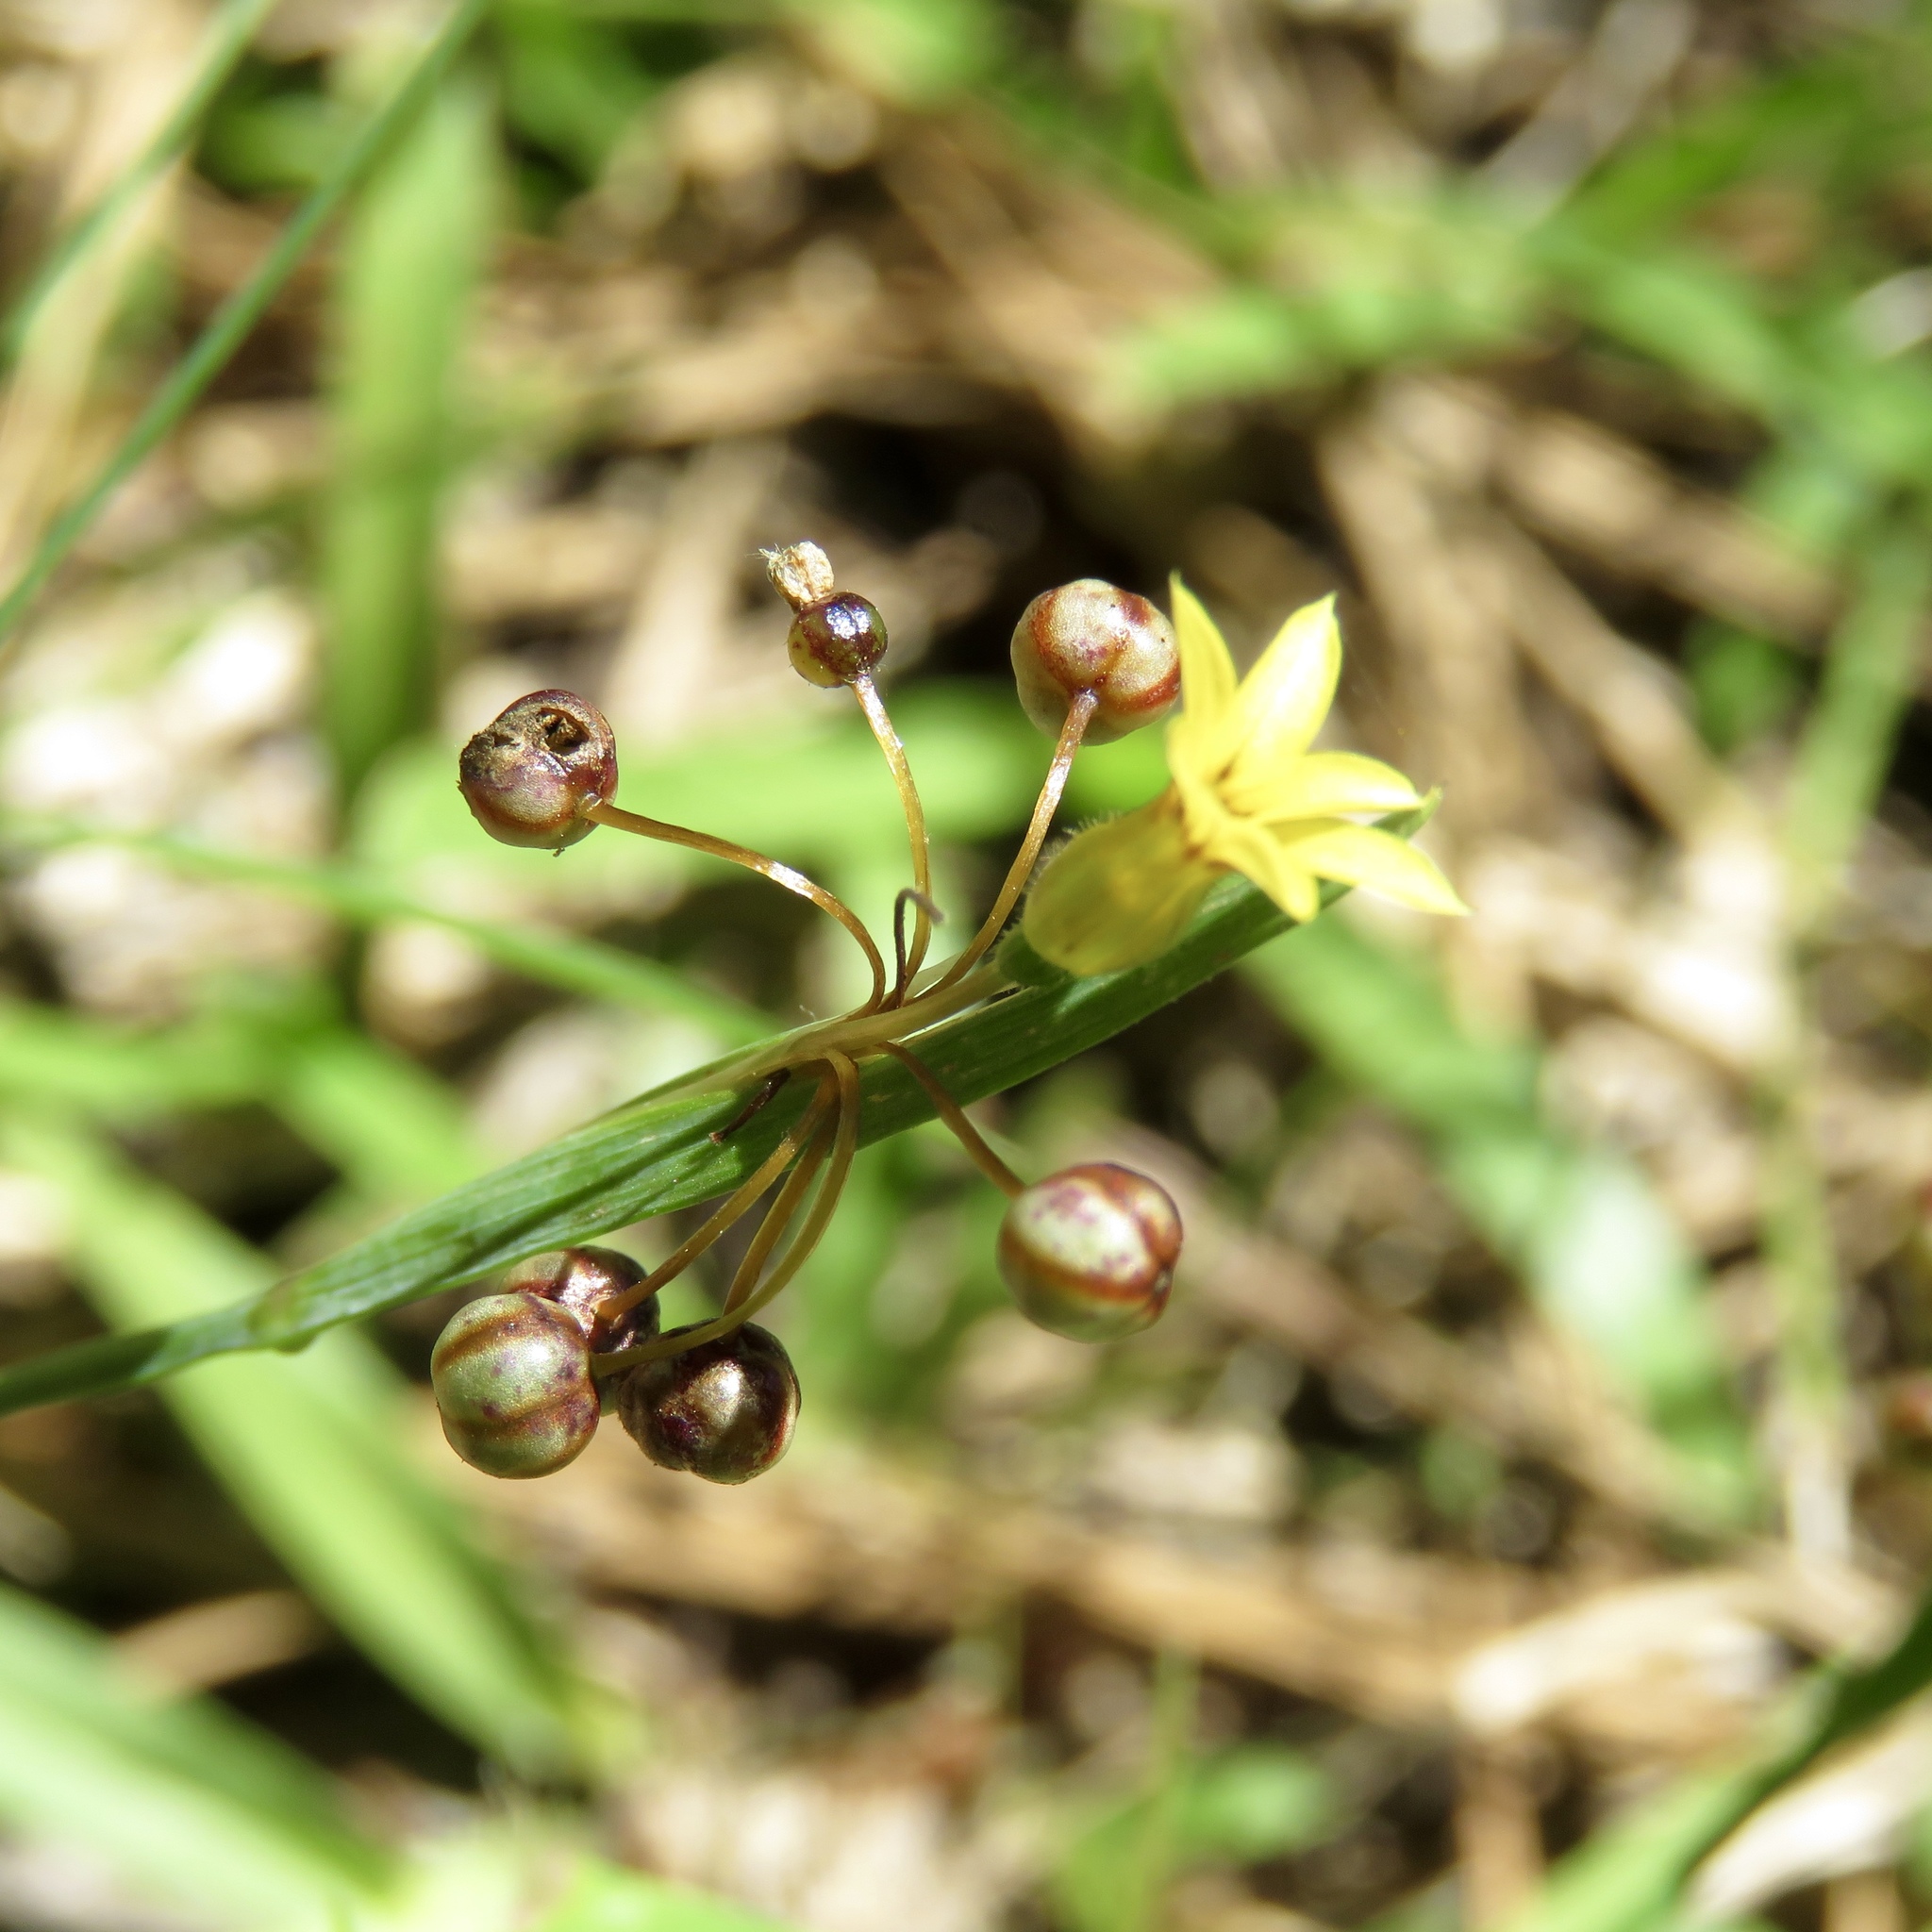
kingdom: Plantae
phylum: Tracheophyta
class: Liliopsida
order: Asparagales
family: Iridaceae
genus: Sisyrinchium
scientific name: Sisyrinchium micranthum
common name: Bermuda pigroot
